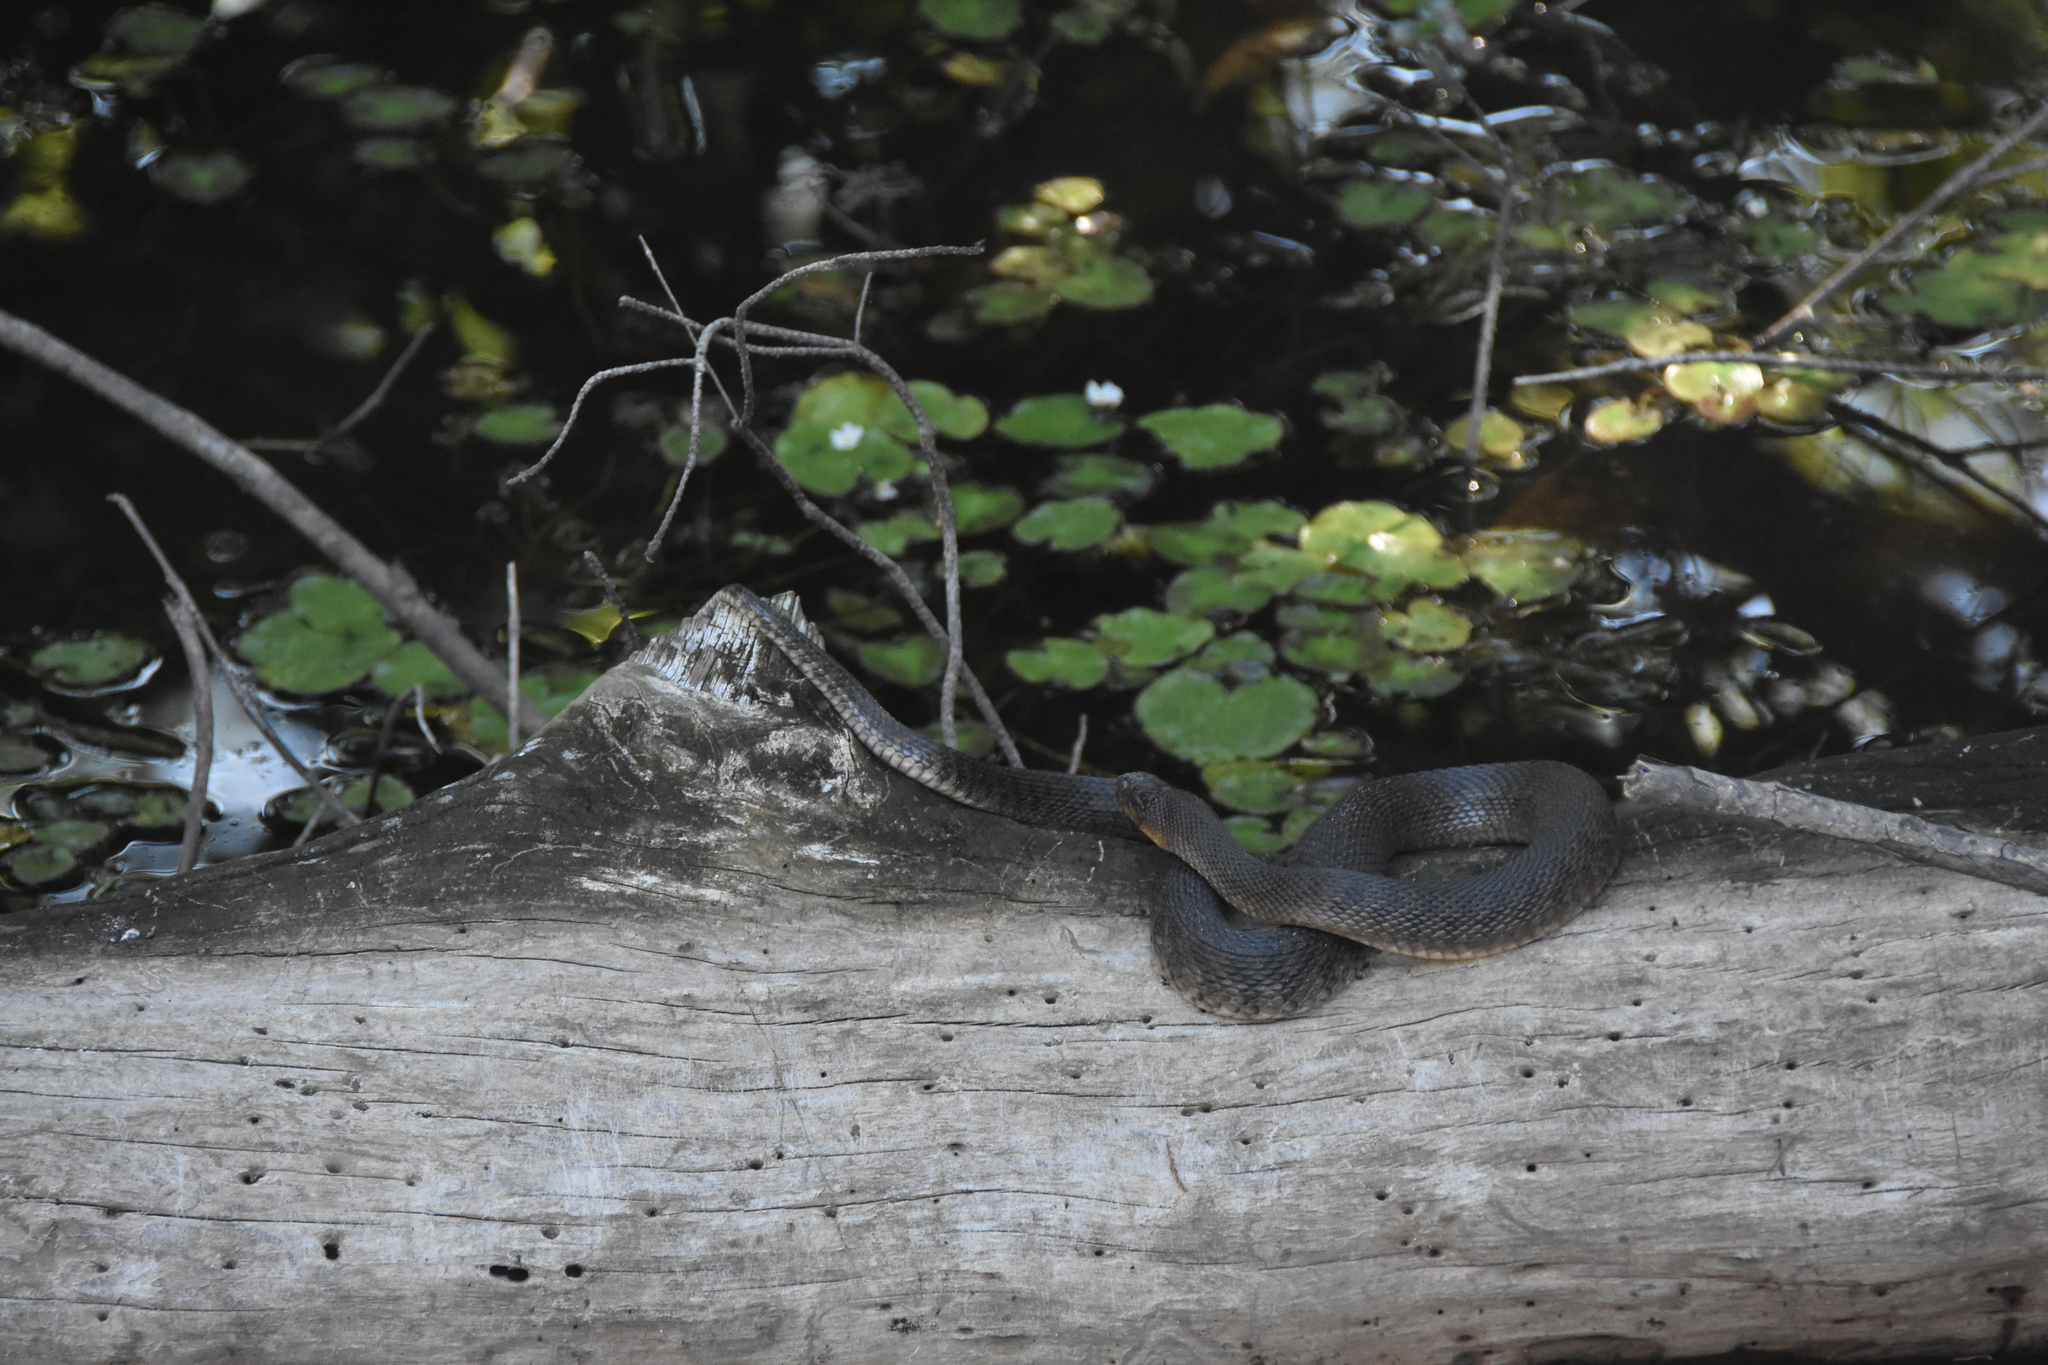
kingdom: Animalia
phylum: Chordata
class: Squamata
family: Colubridae
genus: Nerodia
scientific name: Nerodia floridana
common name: Florida green watersnake
